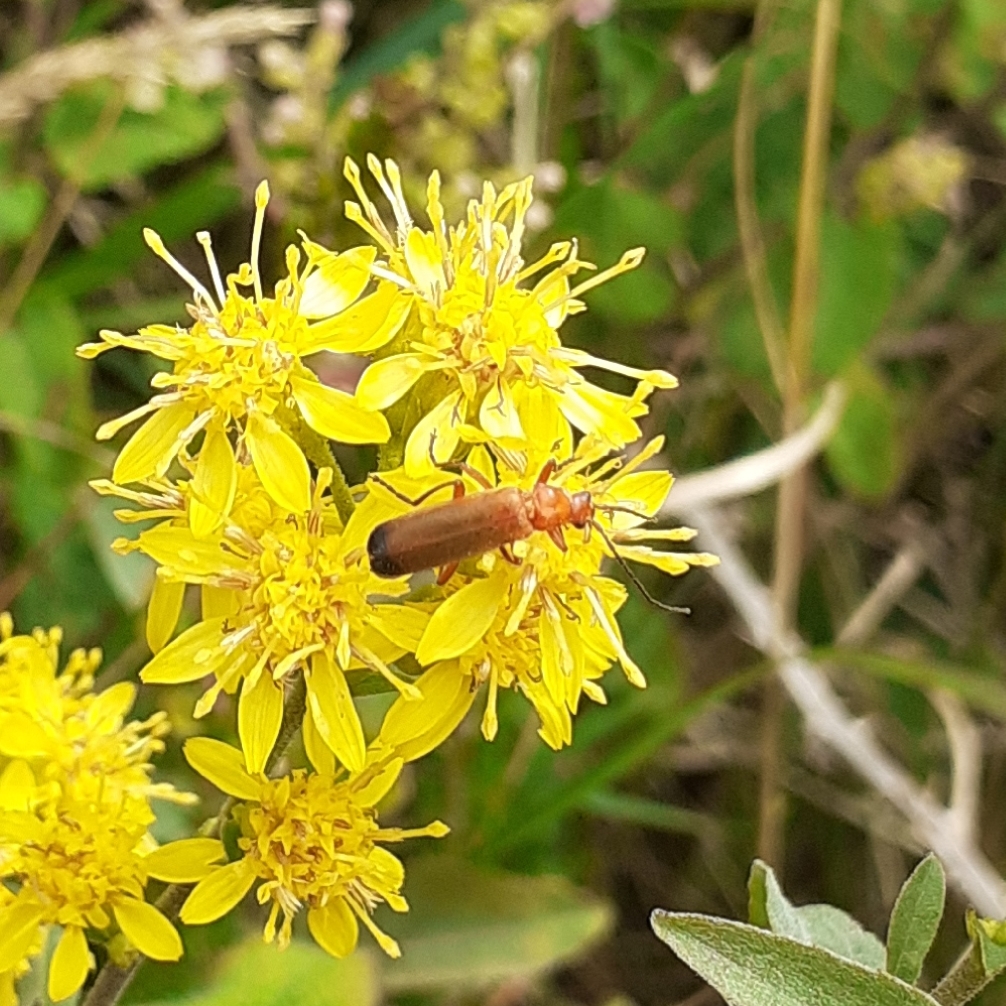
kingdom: Animalia
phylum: Arthropoda
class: Insecta
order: Coleoptera
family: Cantharidae
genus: Rhagonycha
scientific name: Rhagonycha fulva
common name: Common red soldier beetle
